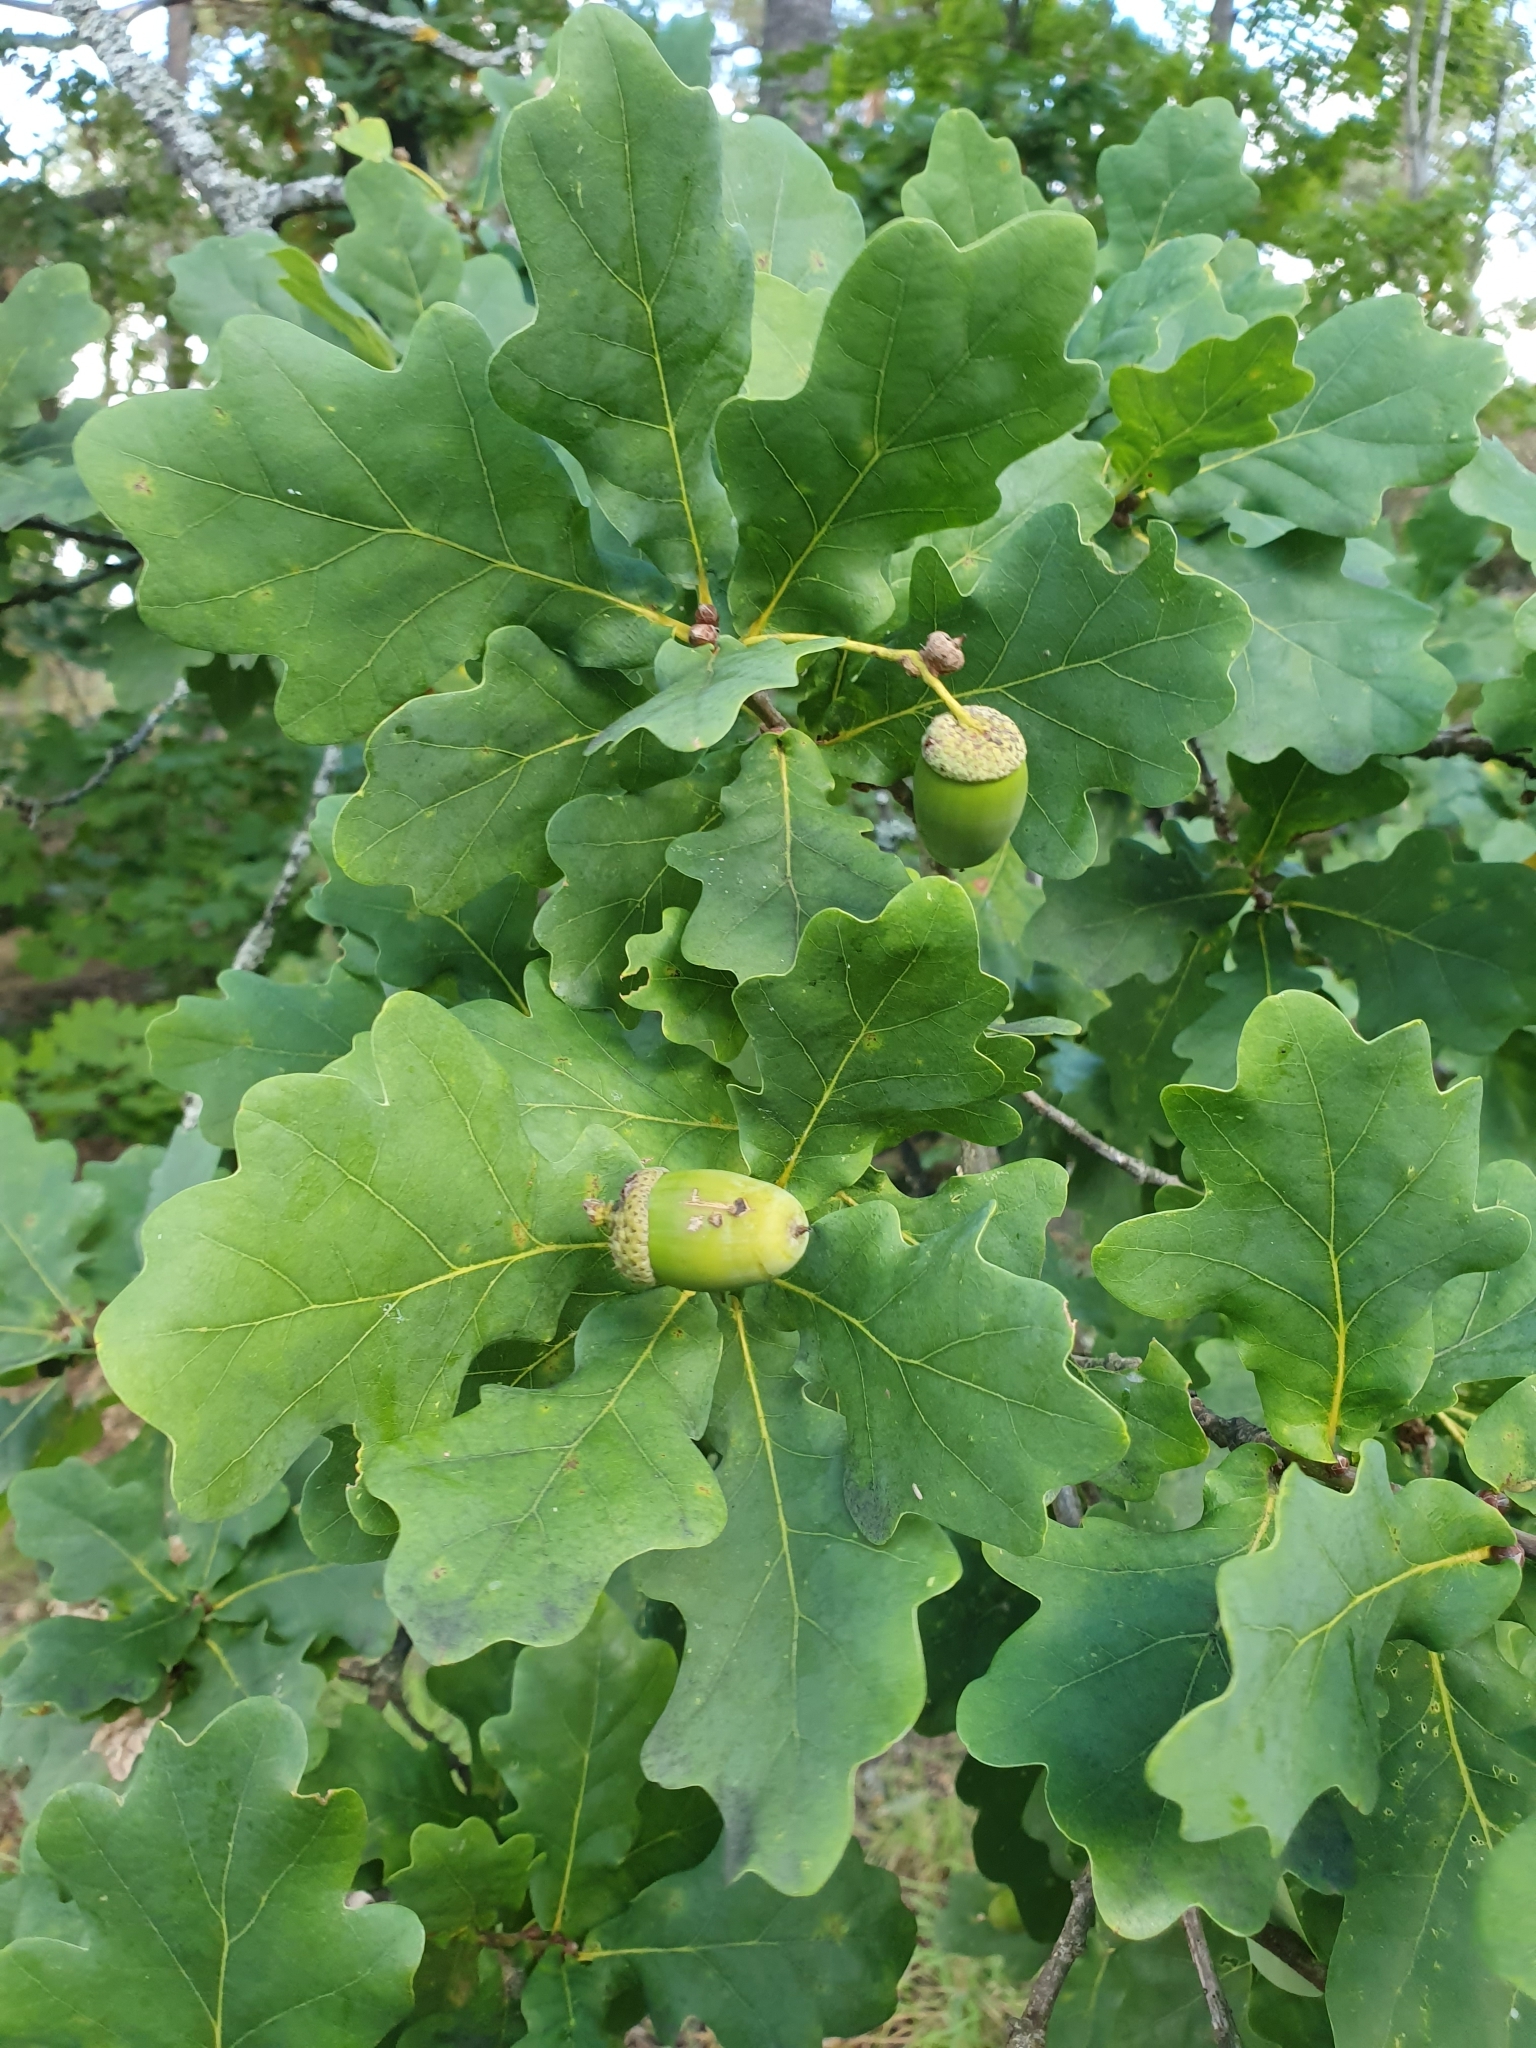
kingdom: Plantae
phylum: Tracheophyta
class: Magnoliopsida
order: Fagales
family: Fagaceae
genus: Quercus
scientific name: Quercus robur
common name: Pedunculate oak
